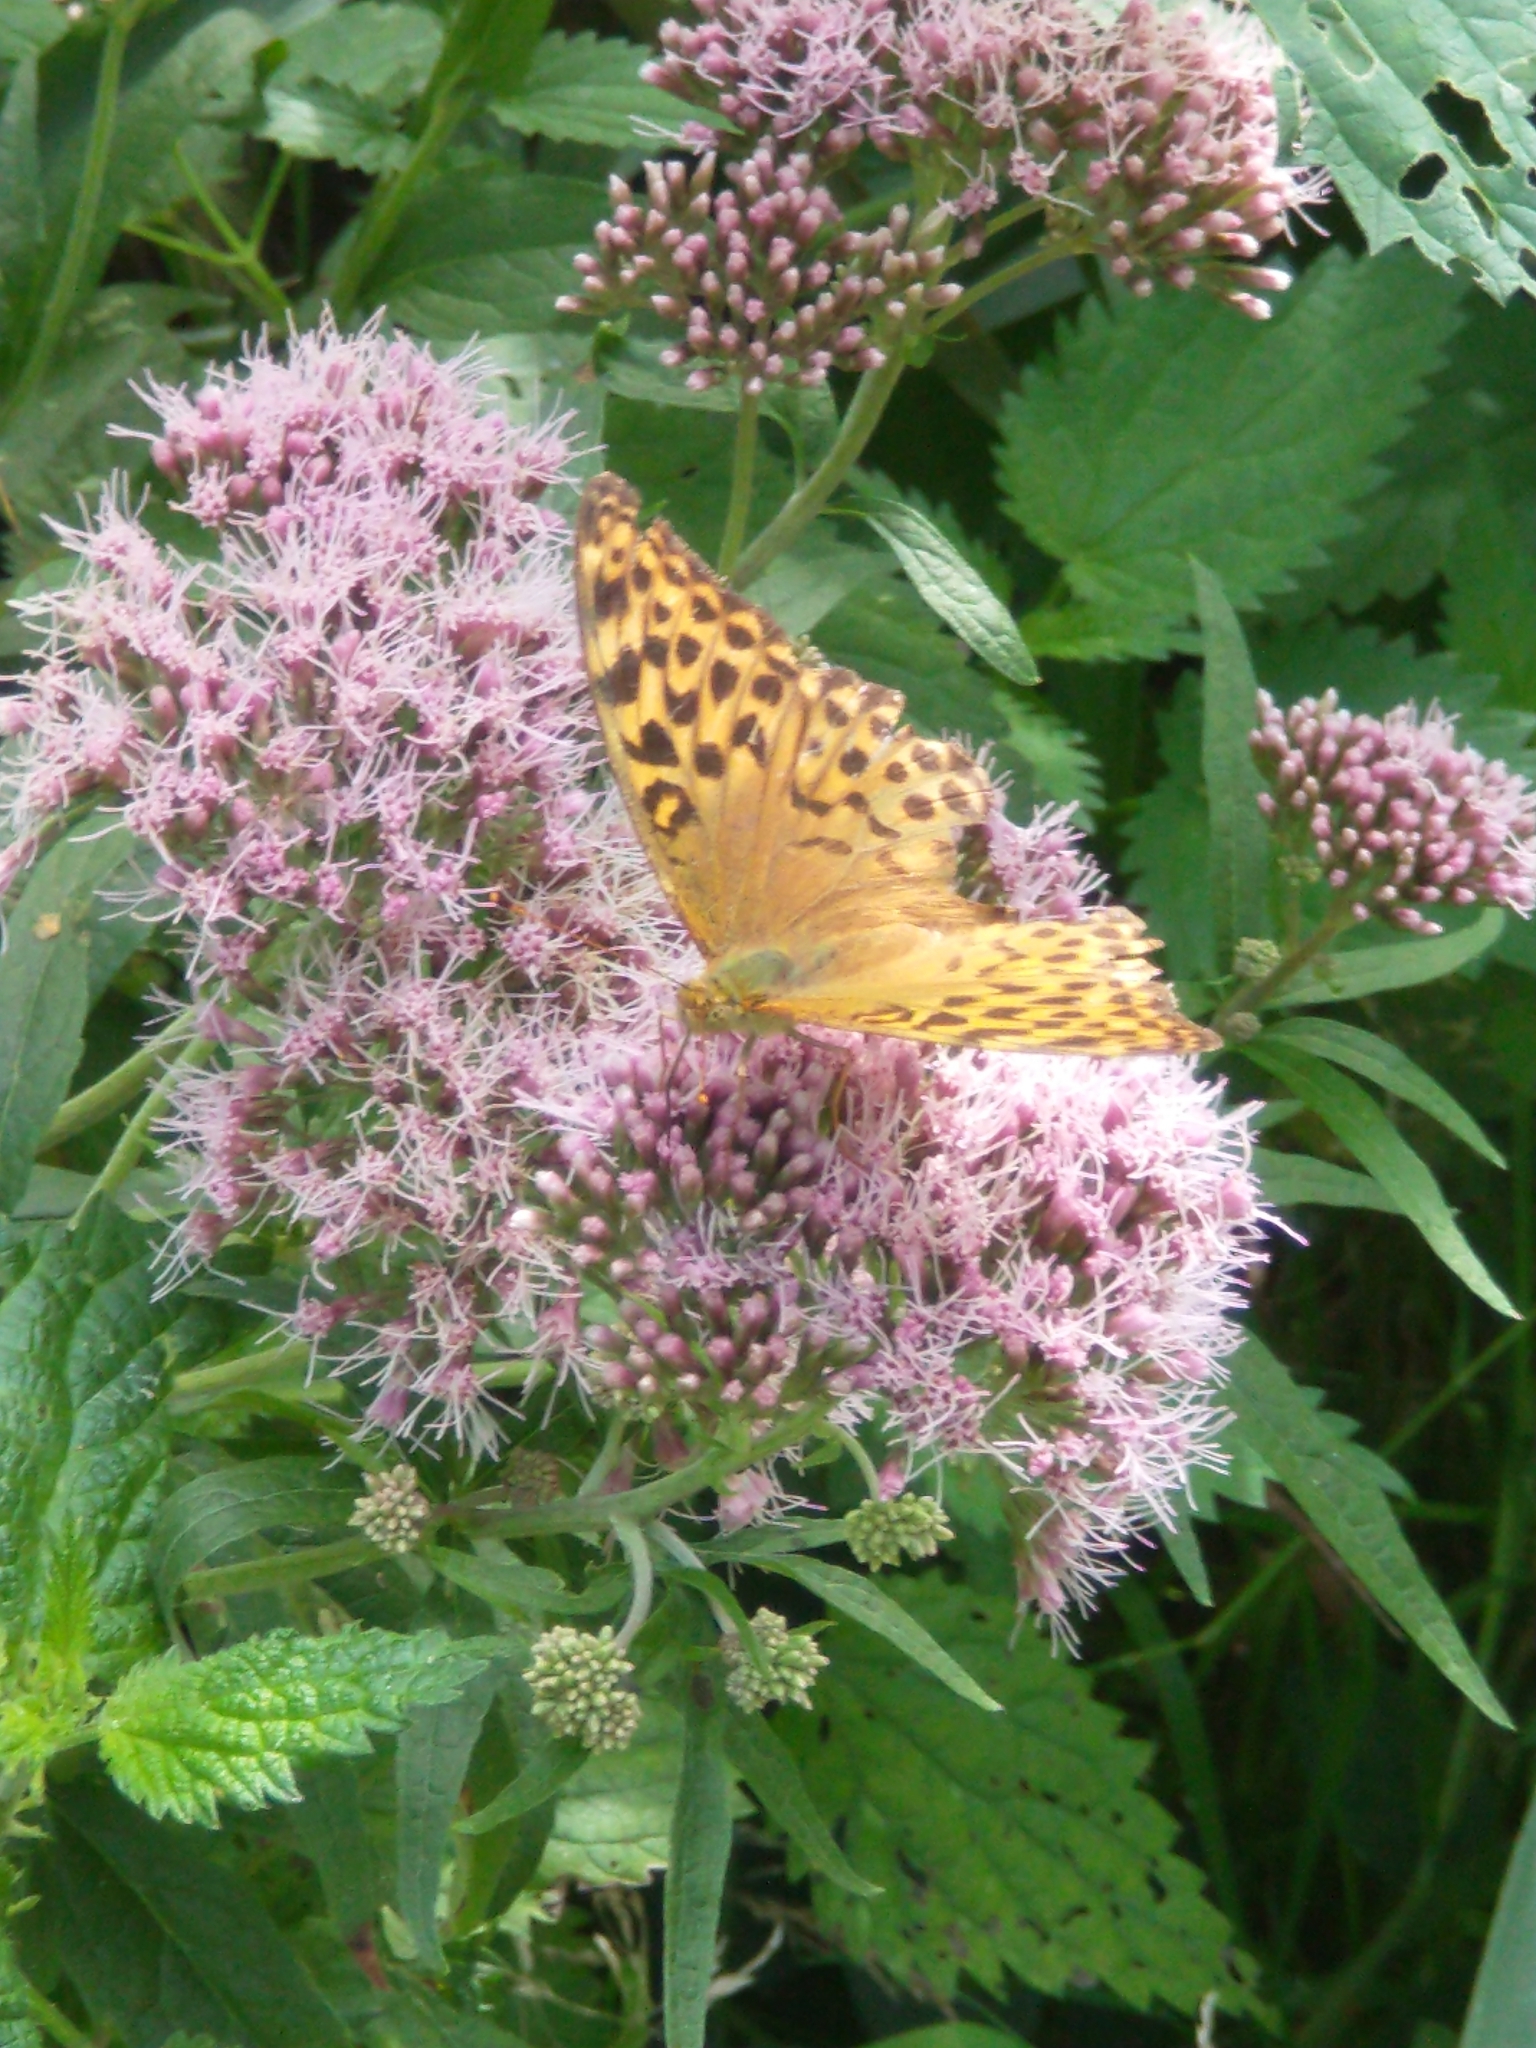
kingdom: Animalia
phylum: Arthropoda
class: Insecta
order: Lepidoptera
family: Nymphalidae
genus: Argynnis
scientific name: Argynnis paphia
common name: Silver-washed fritillary
